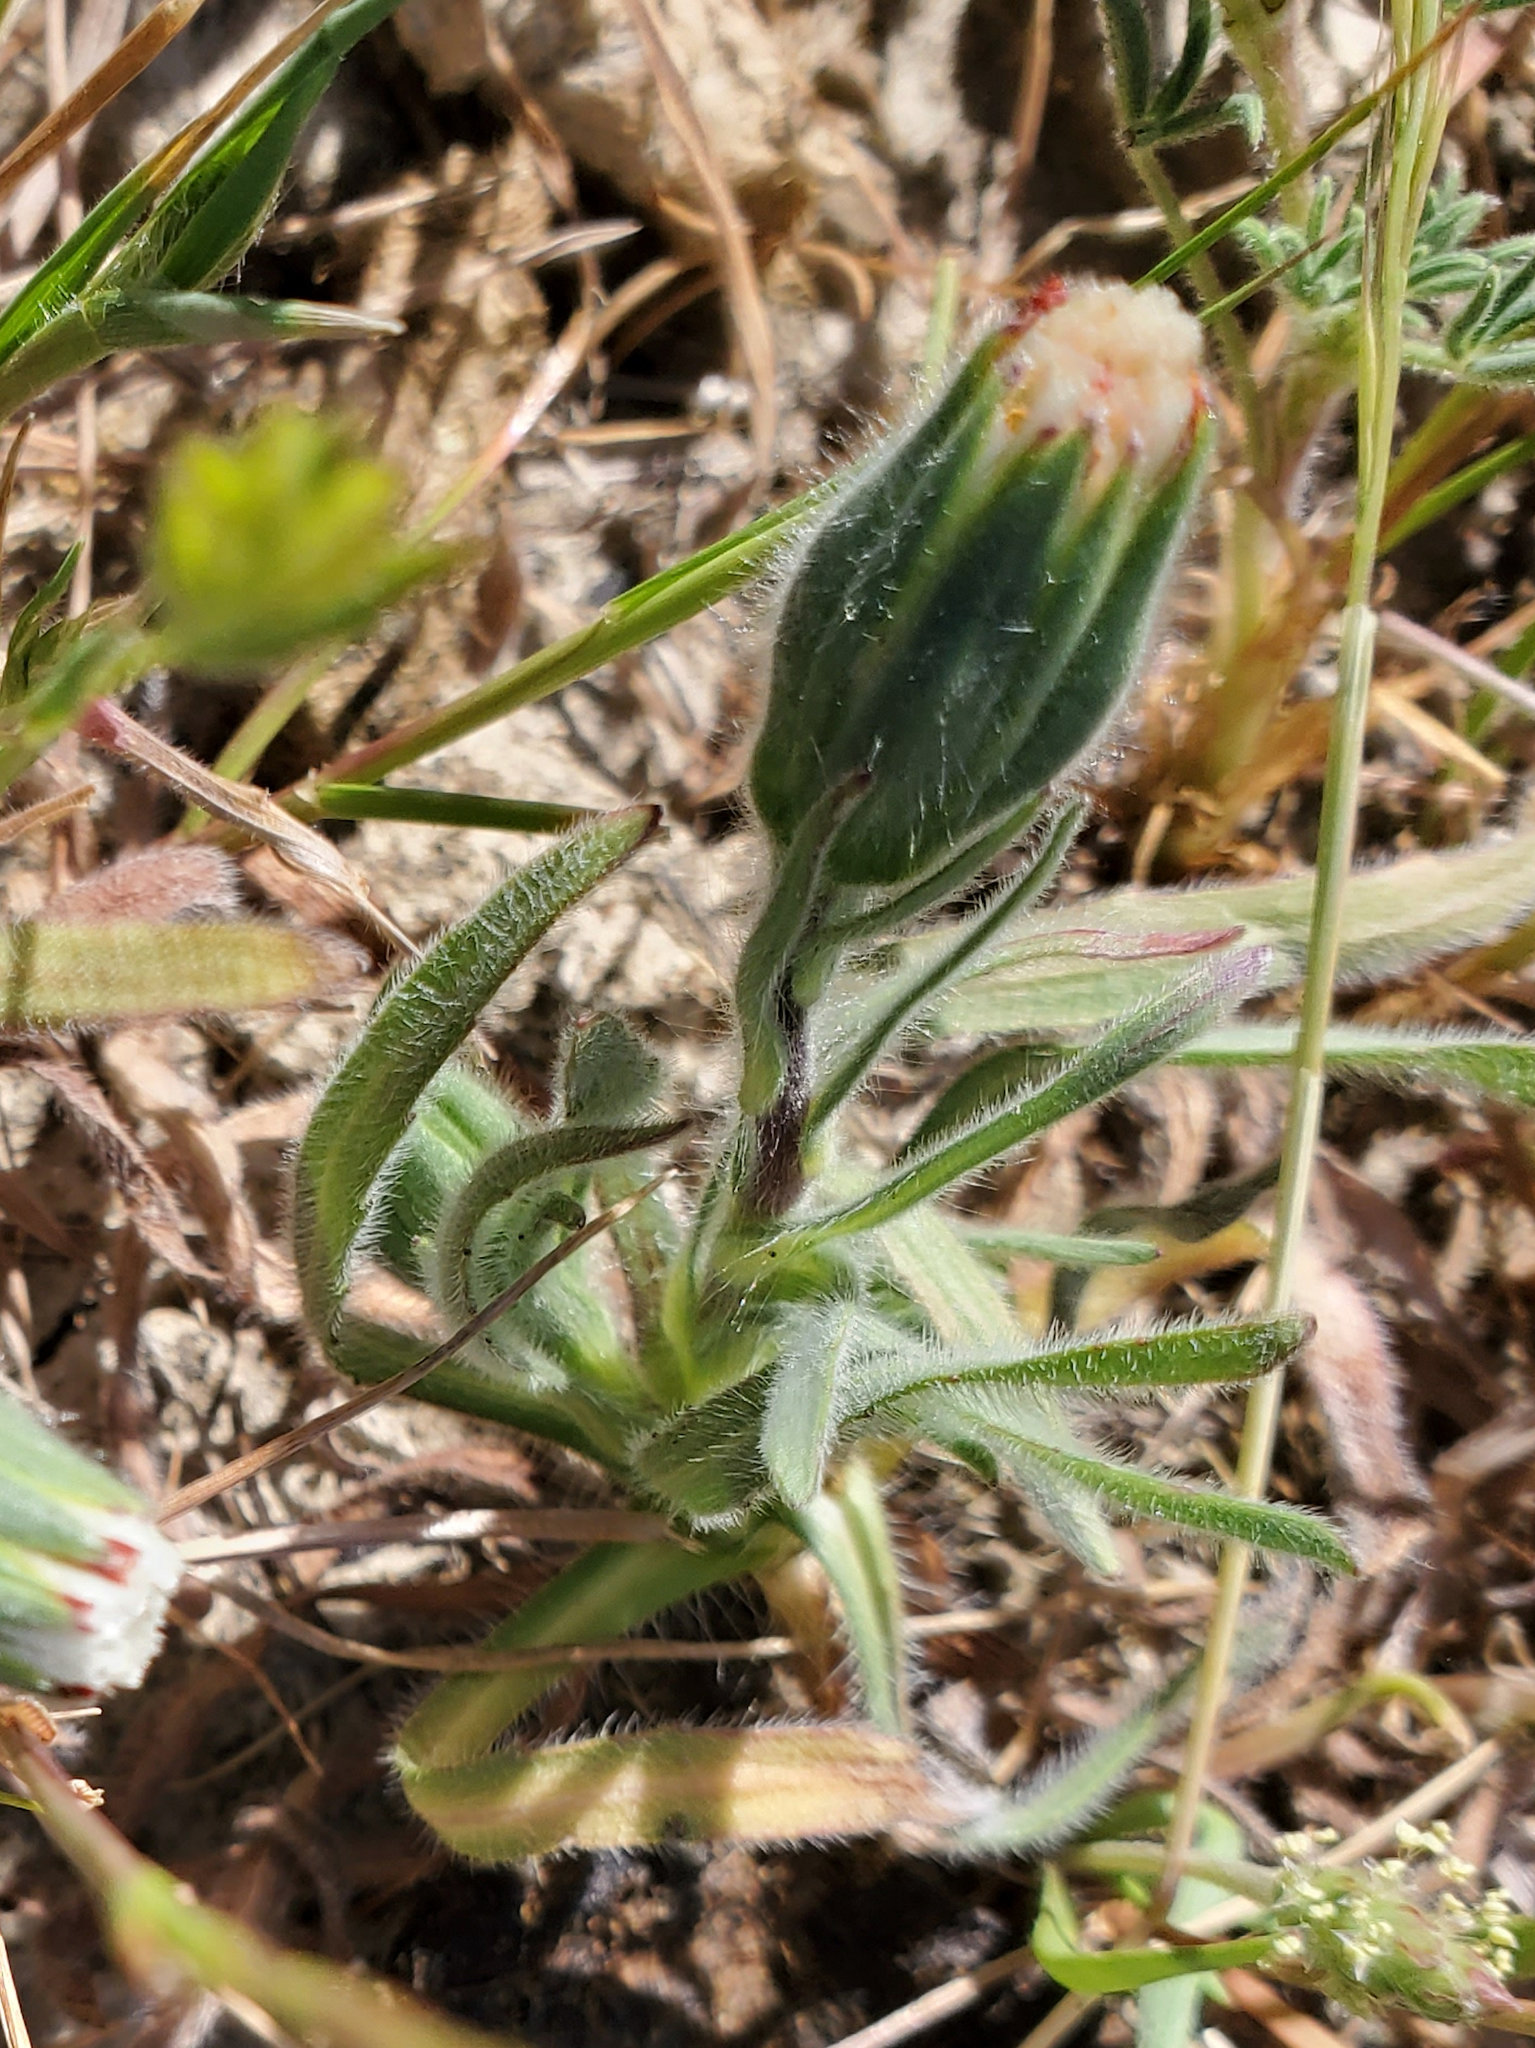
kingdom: Plantae
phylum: Tracheophyta
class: Magnoliopsida
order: Asterales
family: Asteraceae
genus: Achyrachaena
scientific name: Achyrachaena mollis
